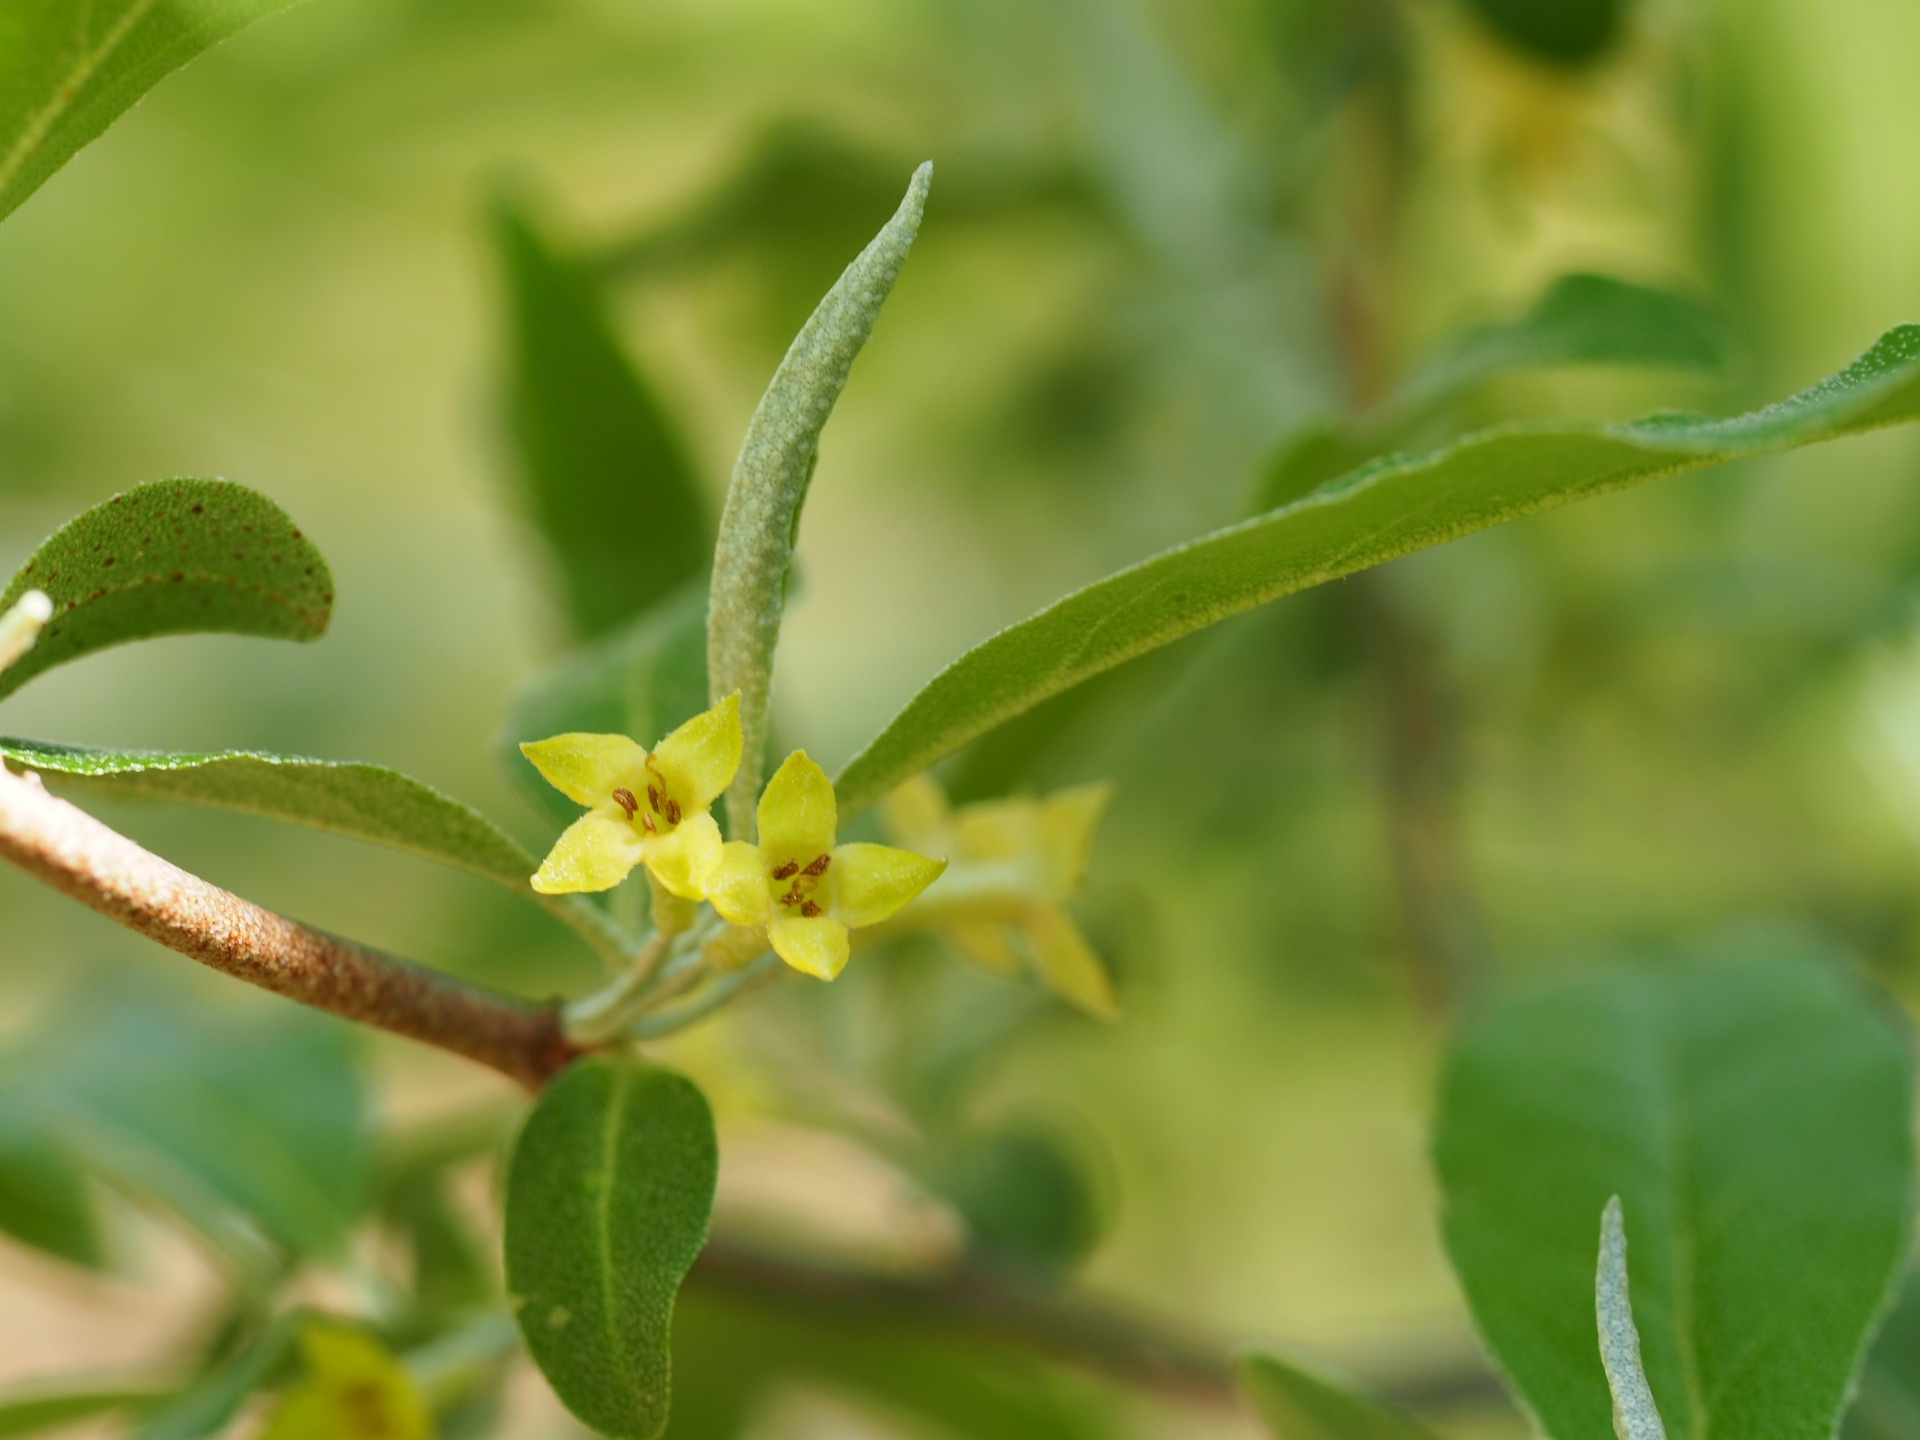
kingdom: Plantae
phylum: Tracheophyta
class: Magnoliopsida
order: Rosales
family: Elaeagnaceae
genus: Elaeagnus
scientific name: Elaeagnus umbellata
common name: Autumn olive
